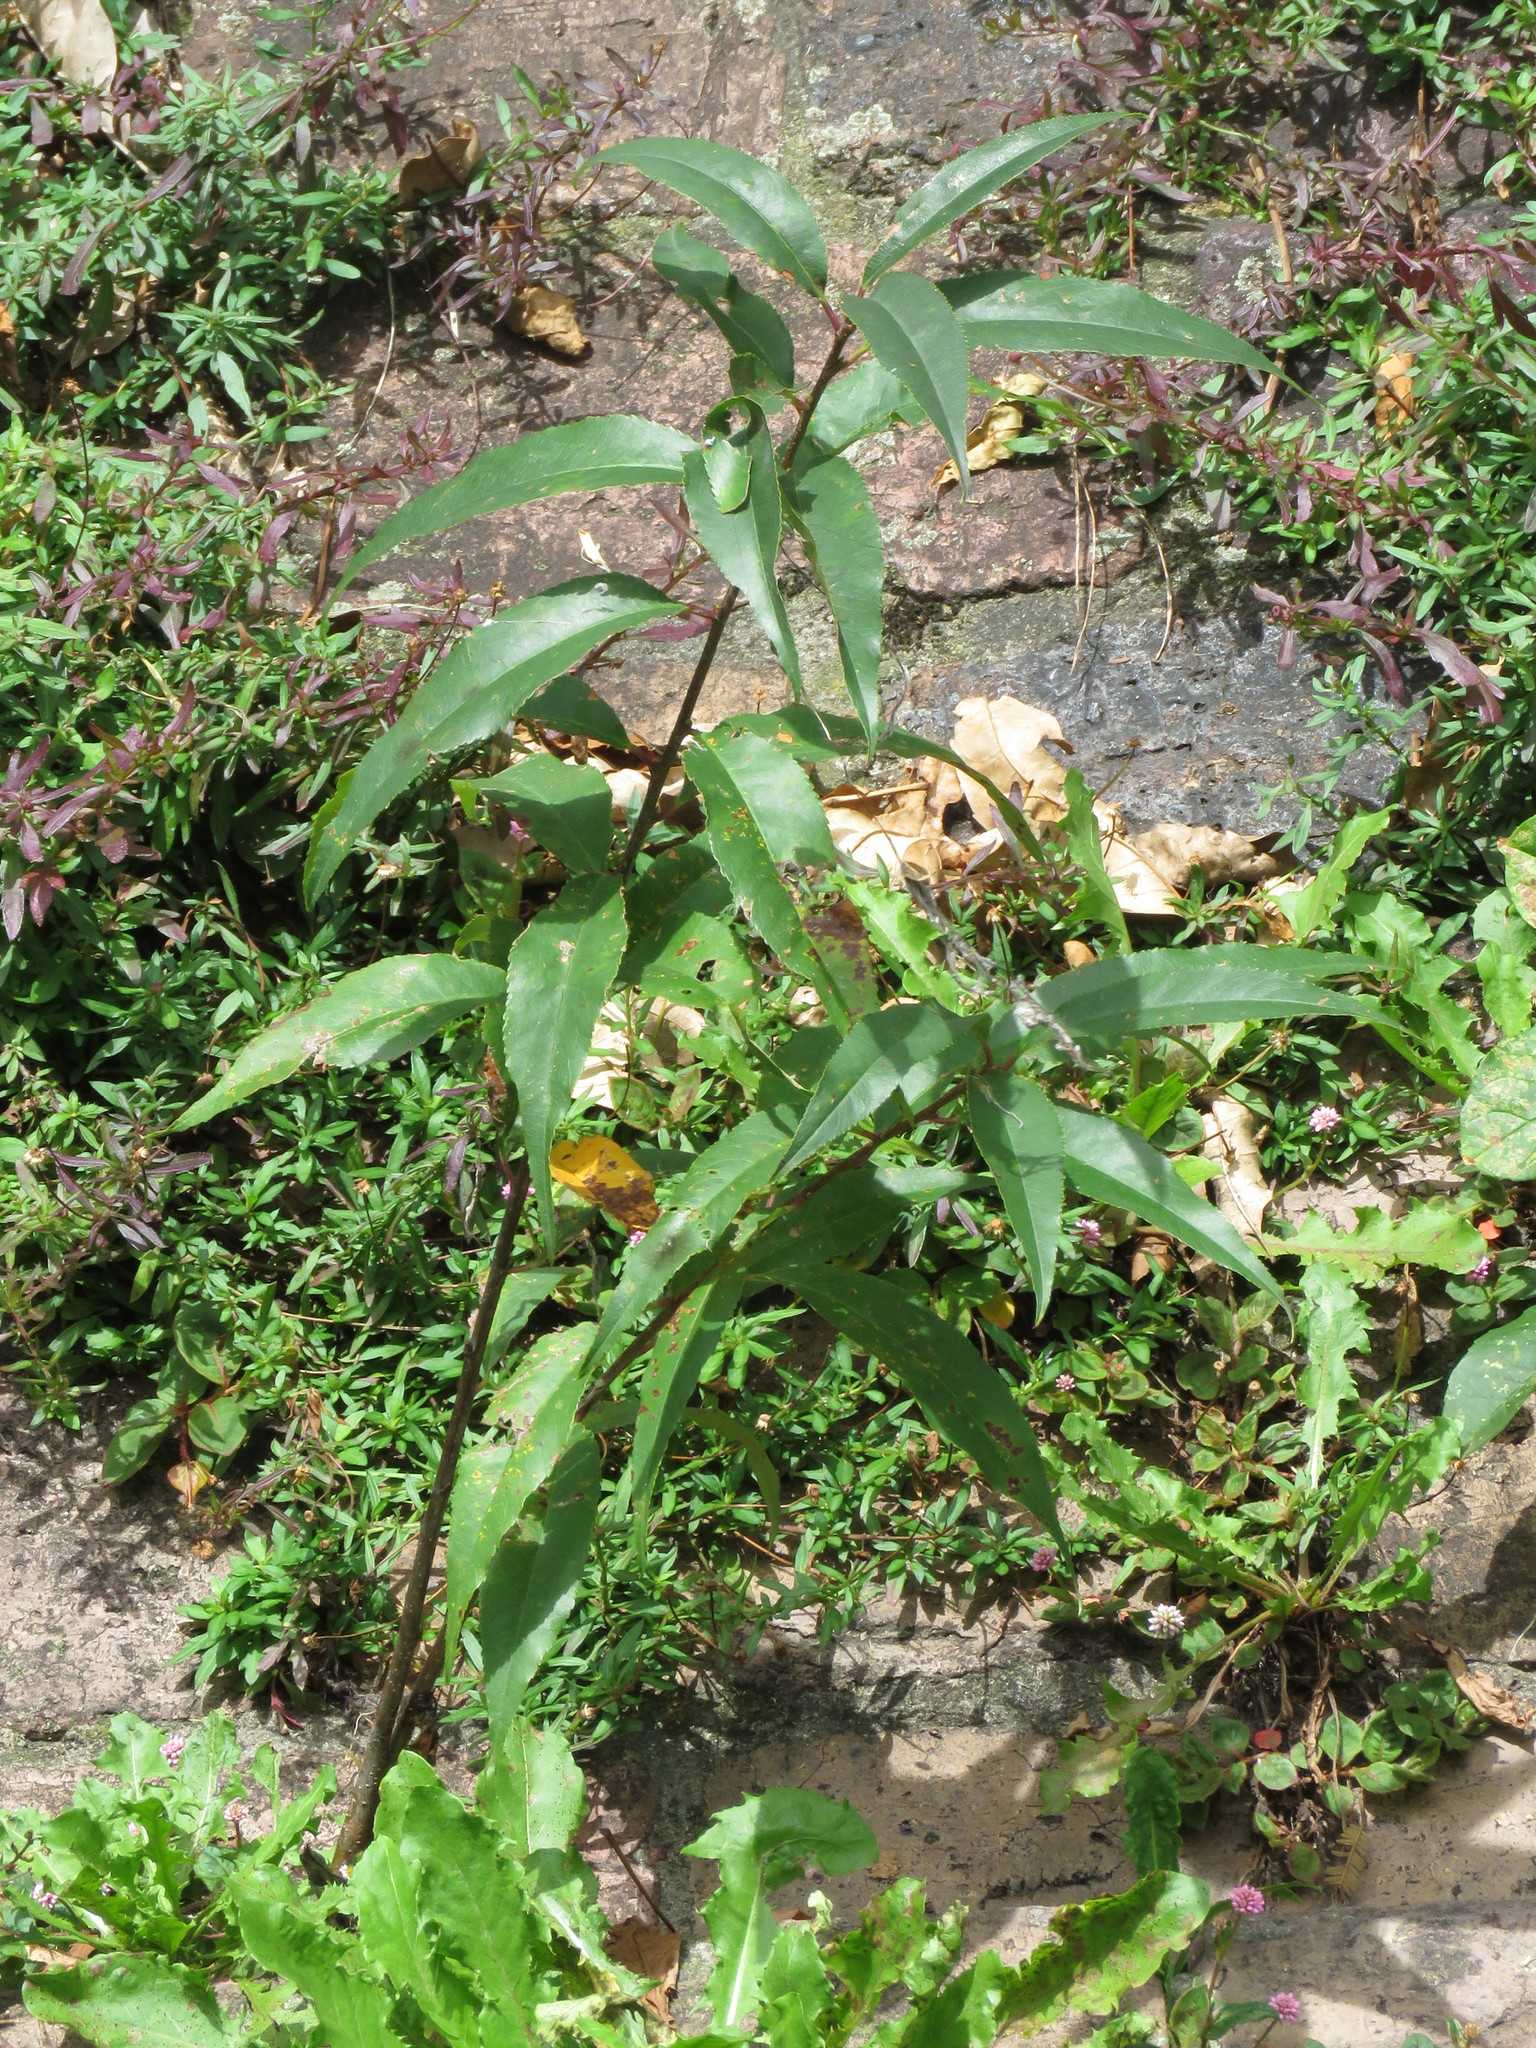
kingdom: Plantae
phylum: Tracheophyta
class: Magnoliopsida
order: Rosales
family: Rosaceae
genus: Prunus
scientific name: Prunus serotina
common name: Black cherry
